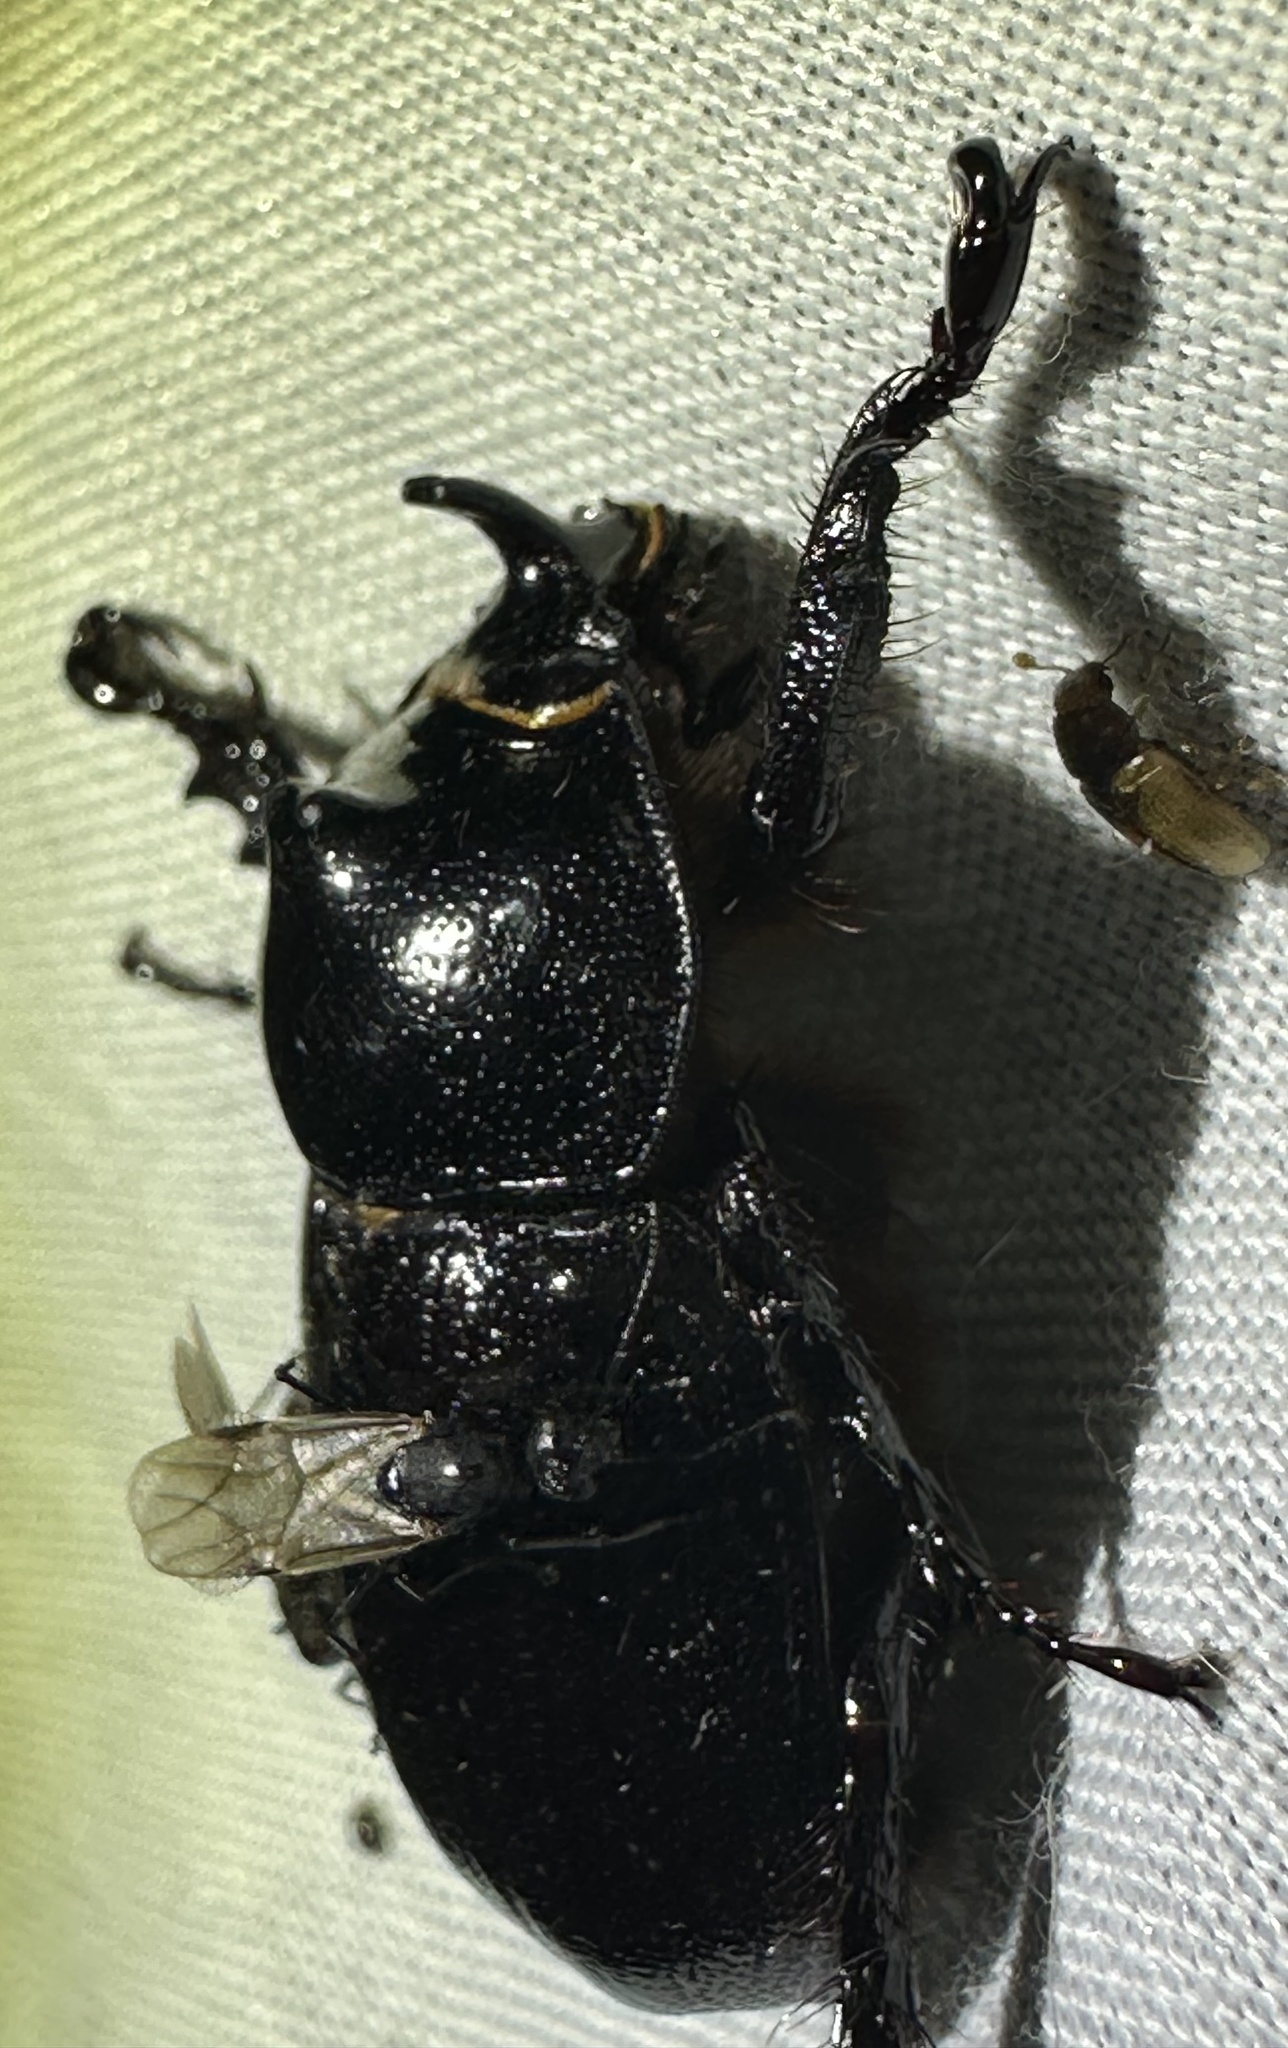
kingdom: Animalia
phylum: Arthropoda
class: Insecta
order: Coleoptera
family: Scarabaeidae
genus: Cyphonistes
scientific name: Cyphonistes vallatus
